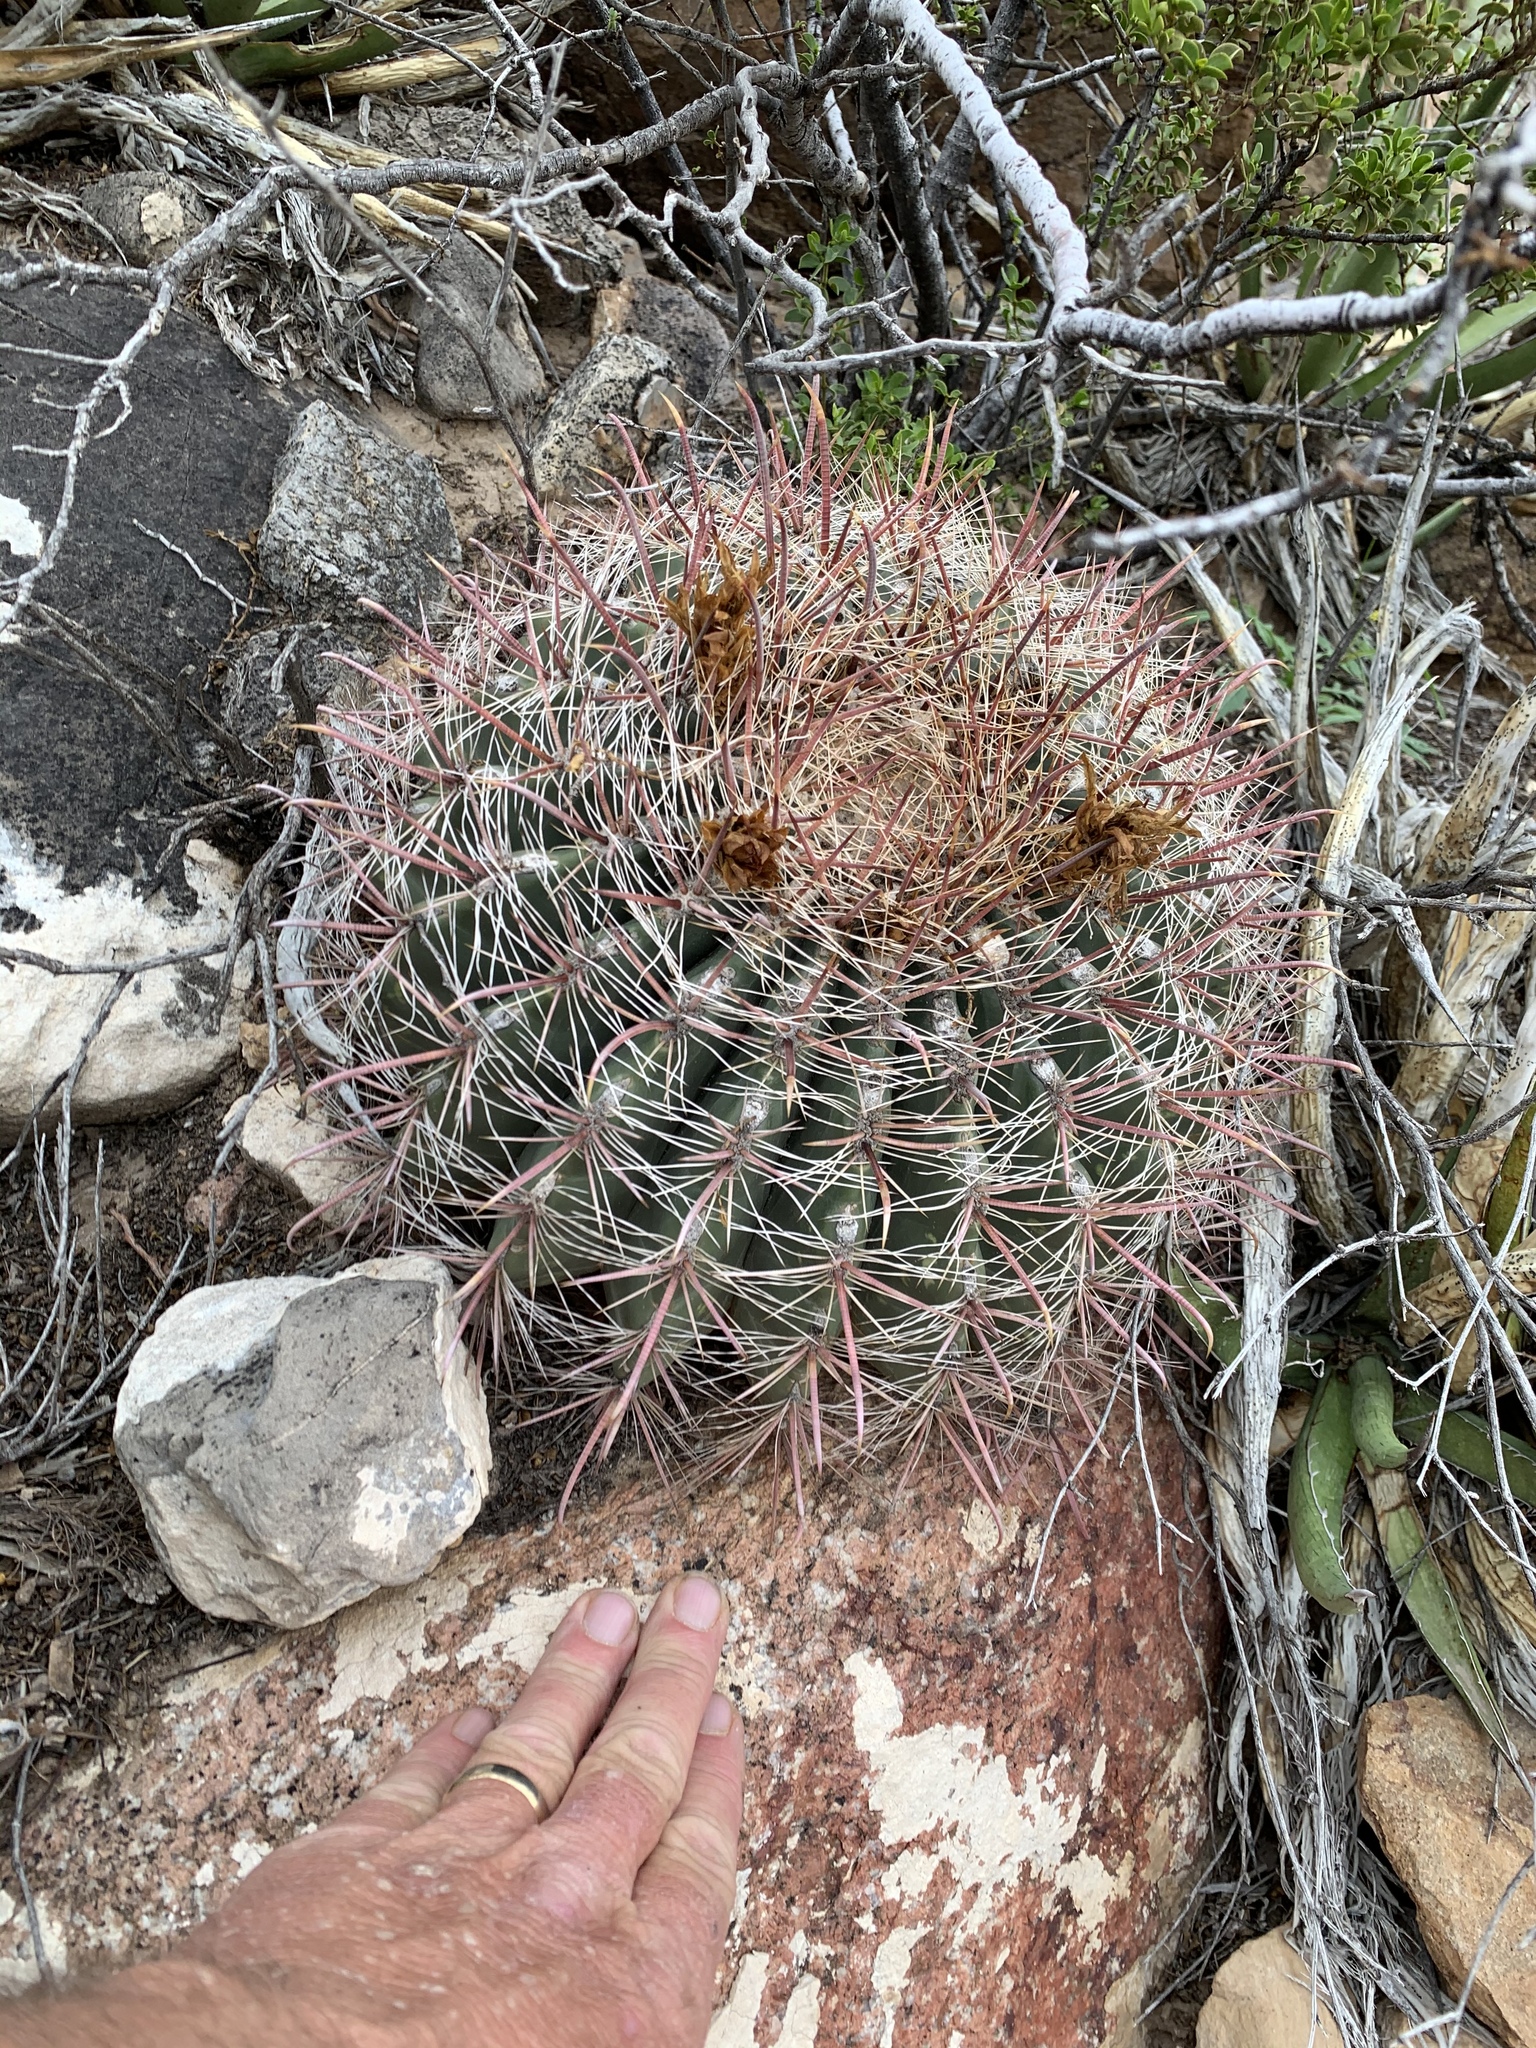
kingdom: Plantae
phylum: Tracheophyta
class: Magnoliopsida
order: Caryophyllales
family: Cactaceae
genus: Ferocactus
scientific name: Ferocactus wislizeni
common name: Candy barrel cactus
